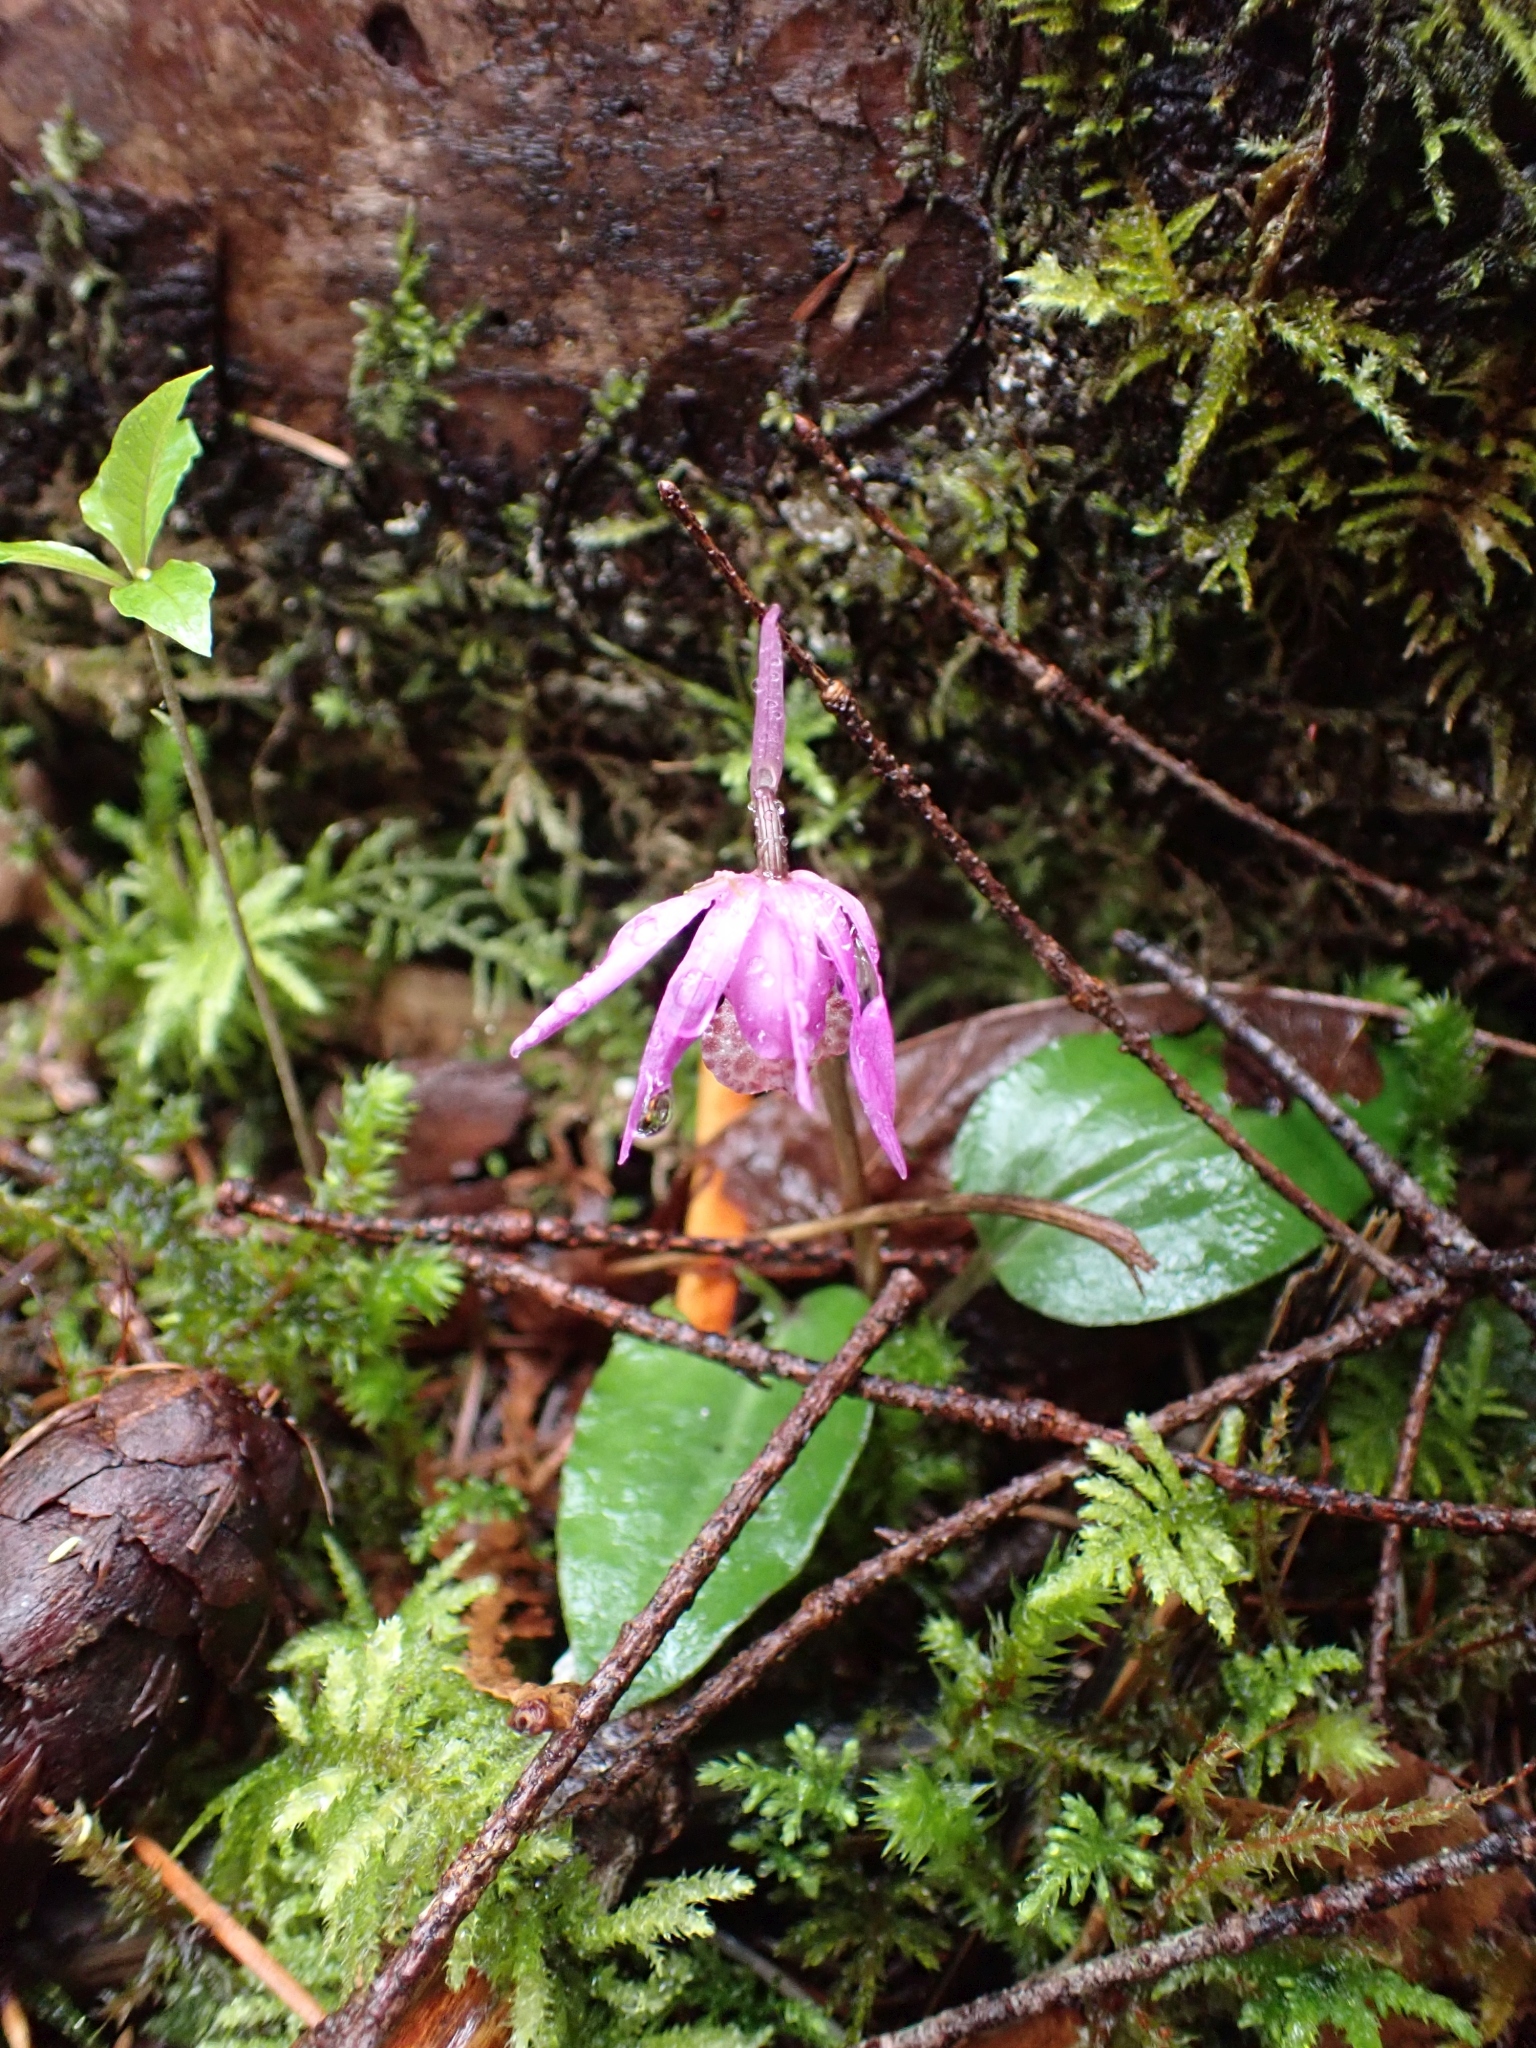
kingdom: Plantae
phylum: Tracheophyta
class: Liliopsida
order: Asparagales
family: Orchidaceae
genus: Calypso
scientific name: Calypso bulbosa
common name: Calypso
